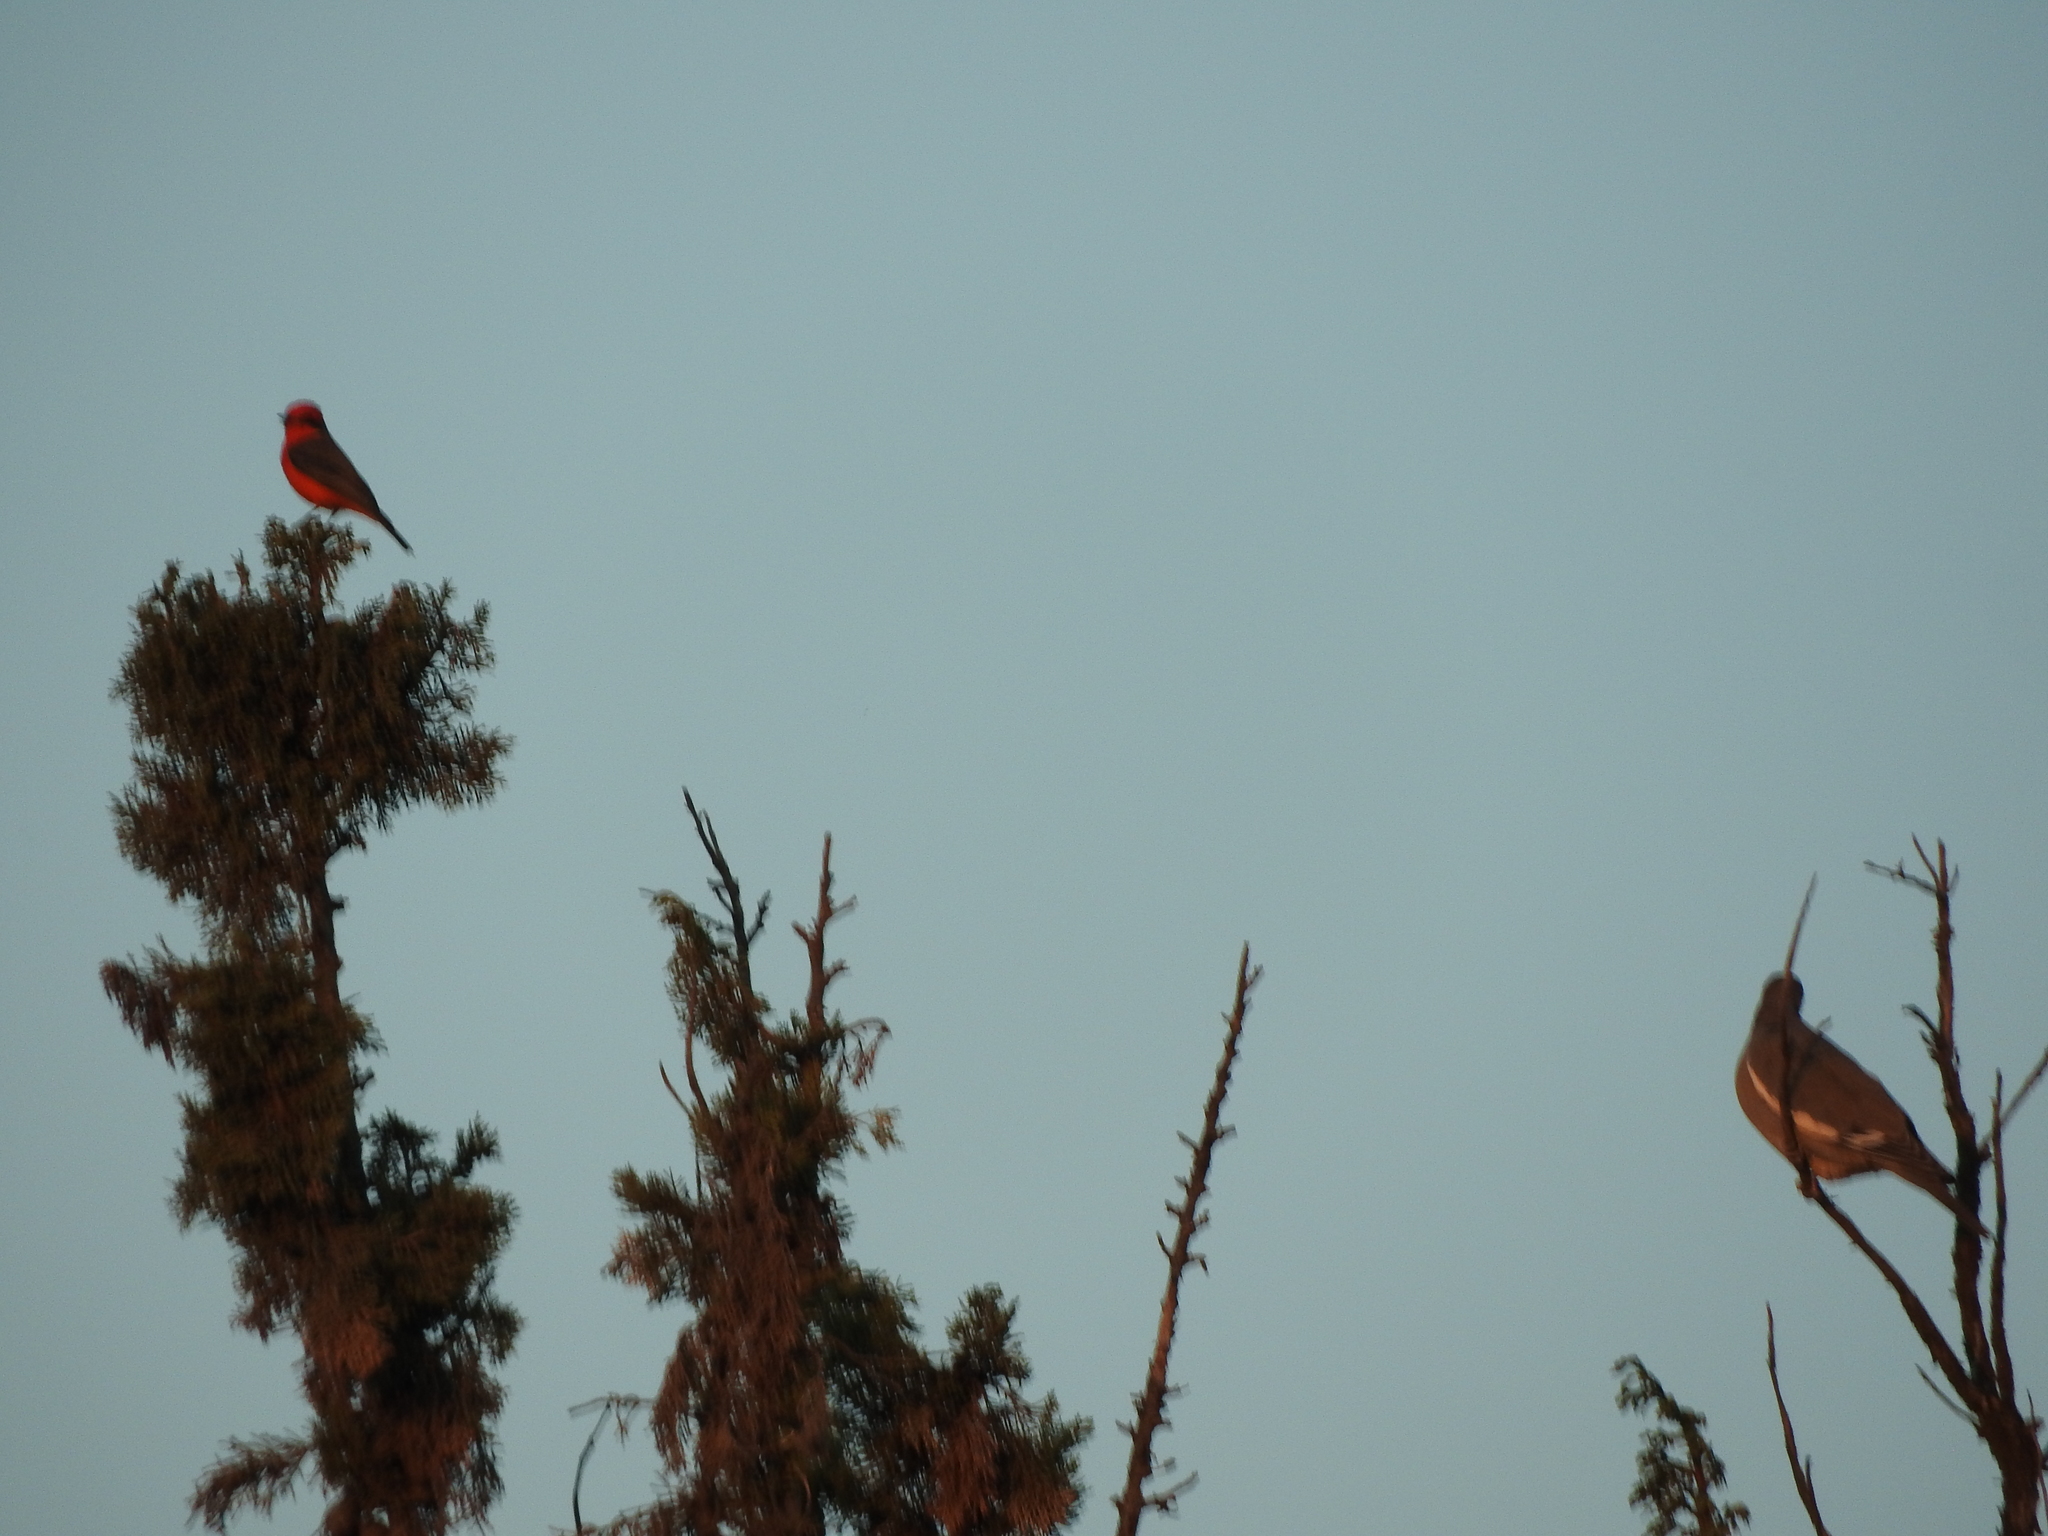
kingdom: Animalia
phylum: Chordata
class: Aves
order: Columbiformes
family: Columbidae
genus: Zenaida
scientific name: Zenaida asiatica
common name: White-winged dove
